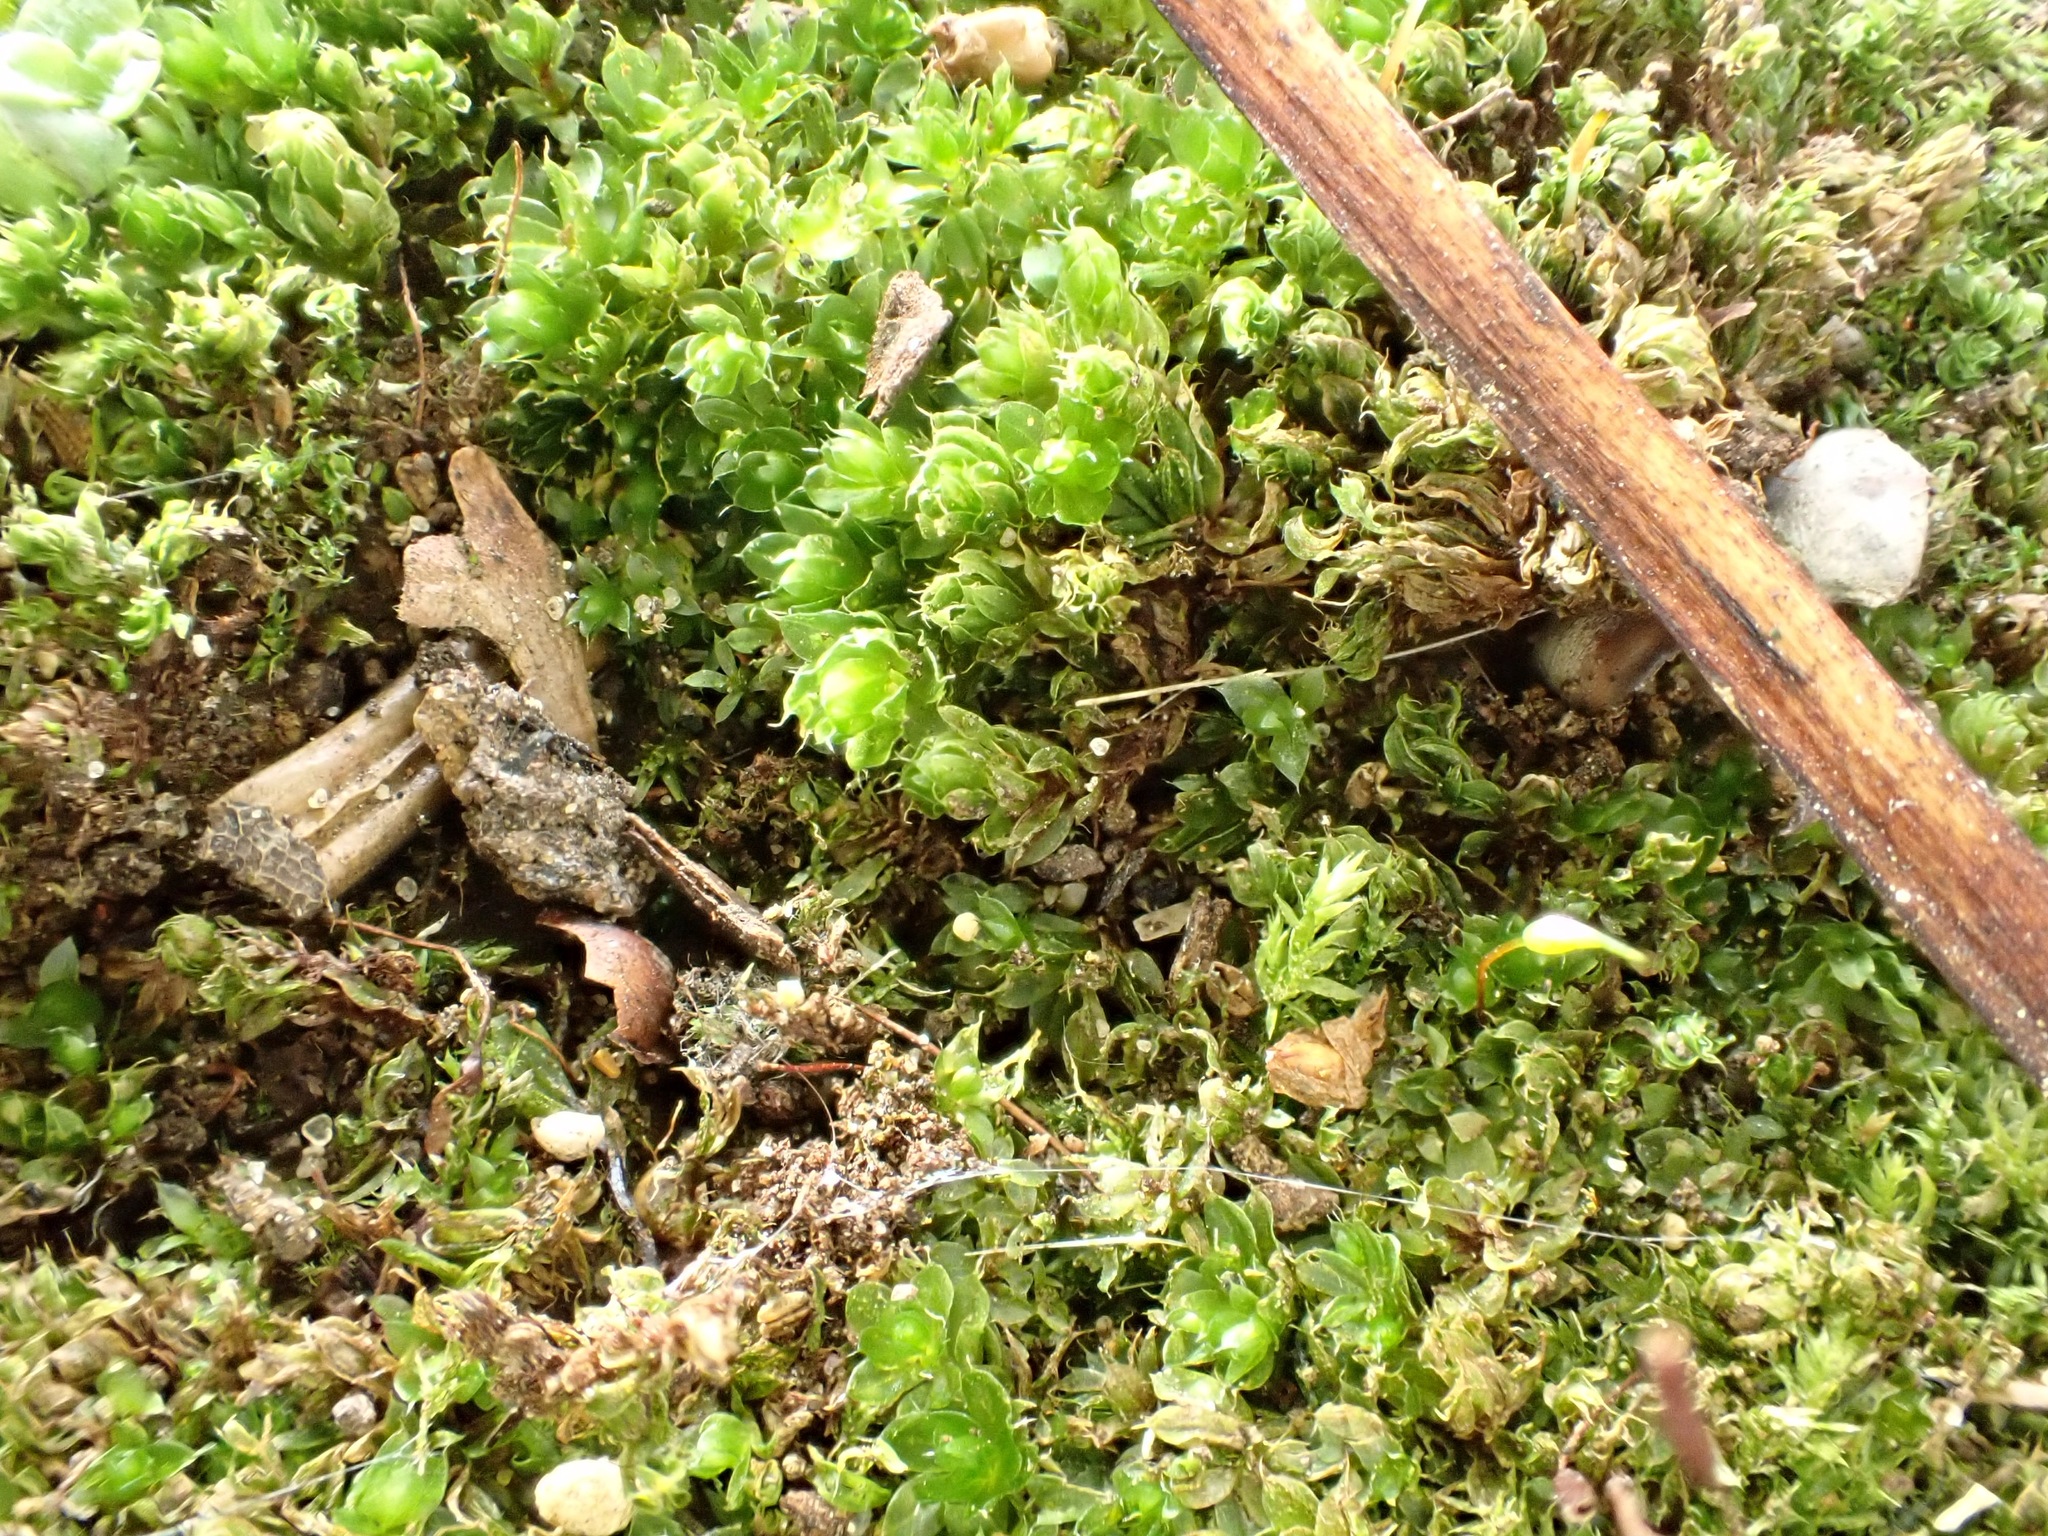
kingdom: Plantae
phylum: Bryophyta
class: Bryopsida
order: Bryales
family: Bryaceae
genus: Rosulabryum
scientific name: Rosulabryum capillare
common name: Capillary thread-moss
